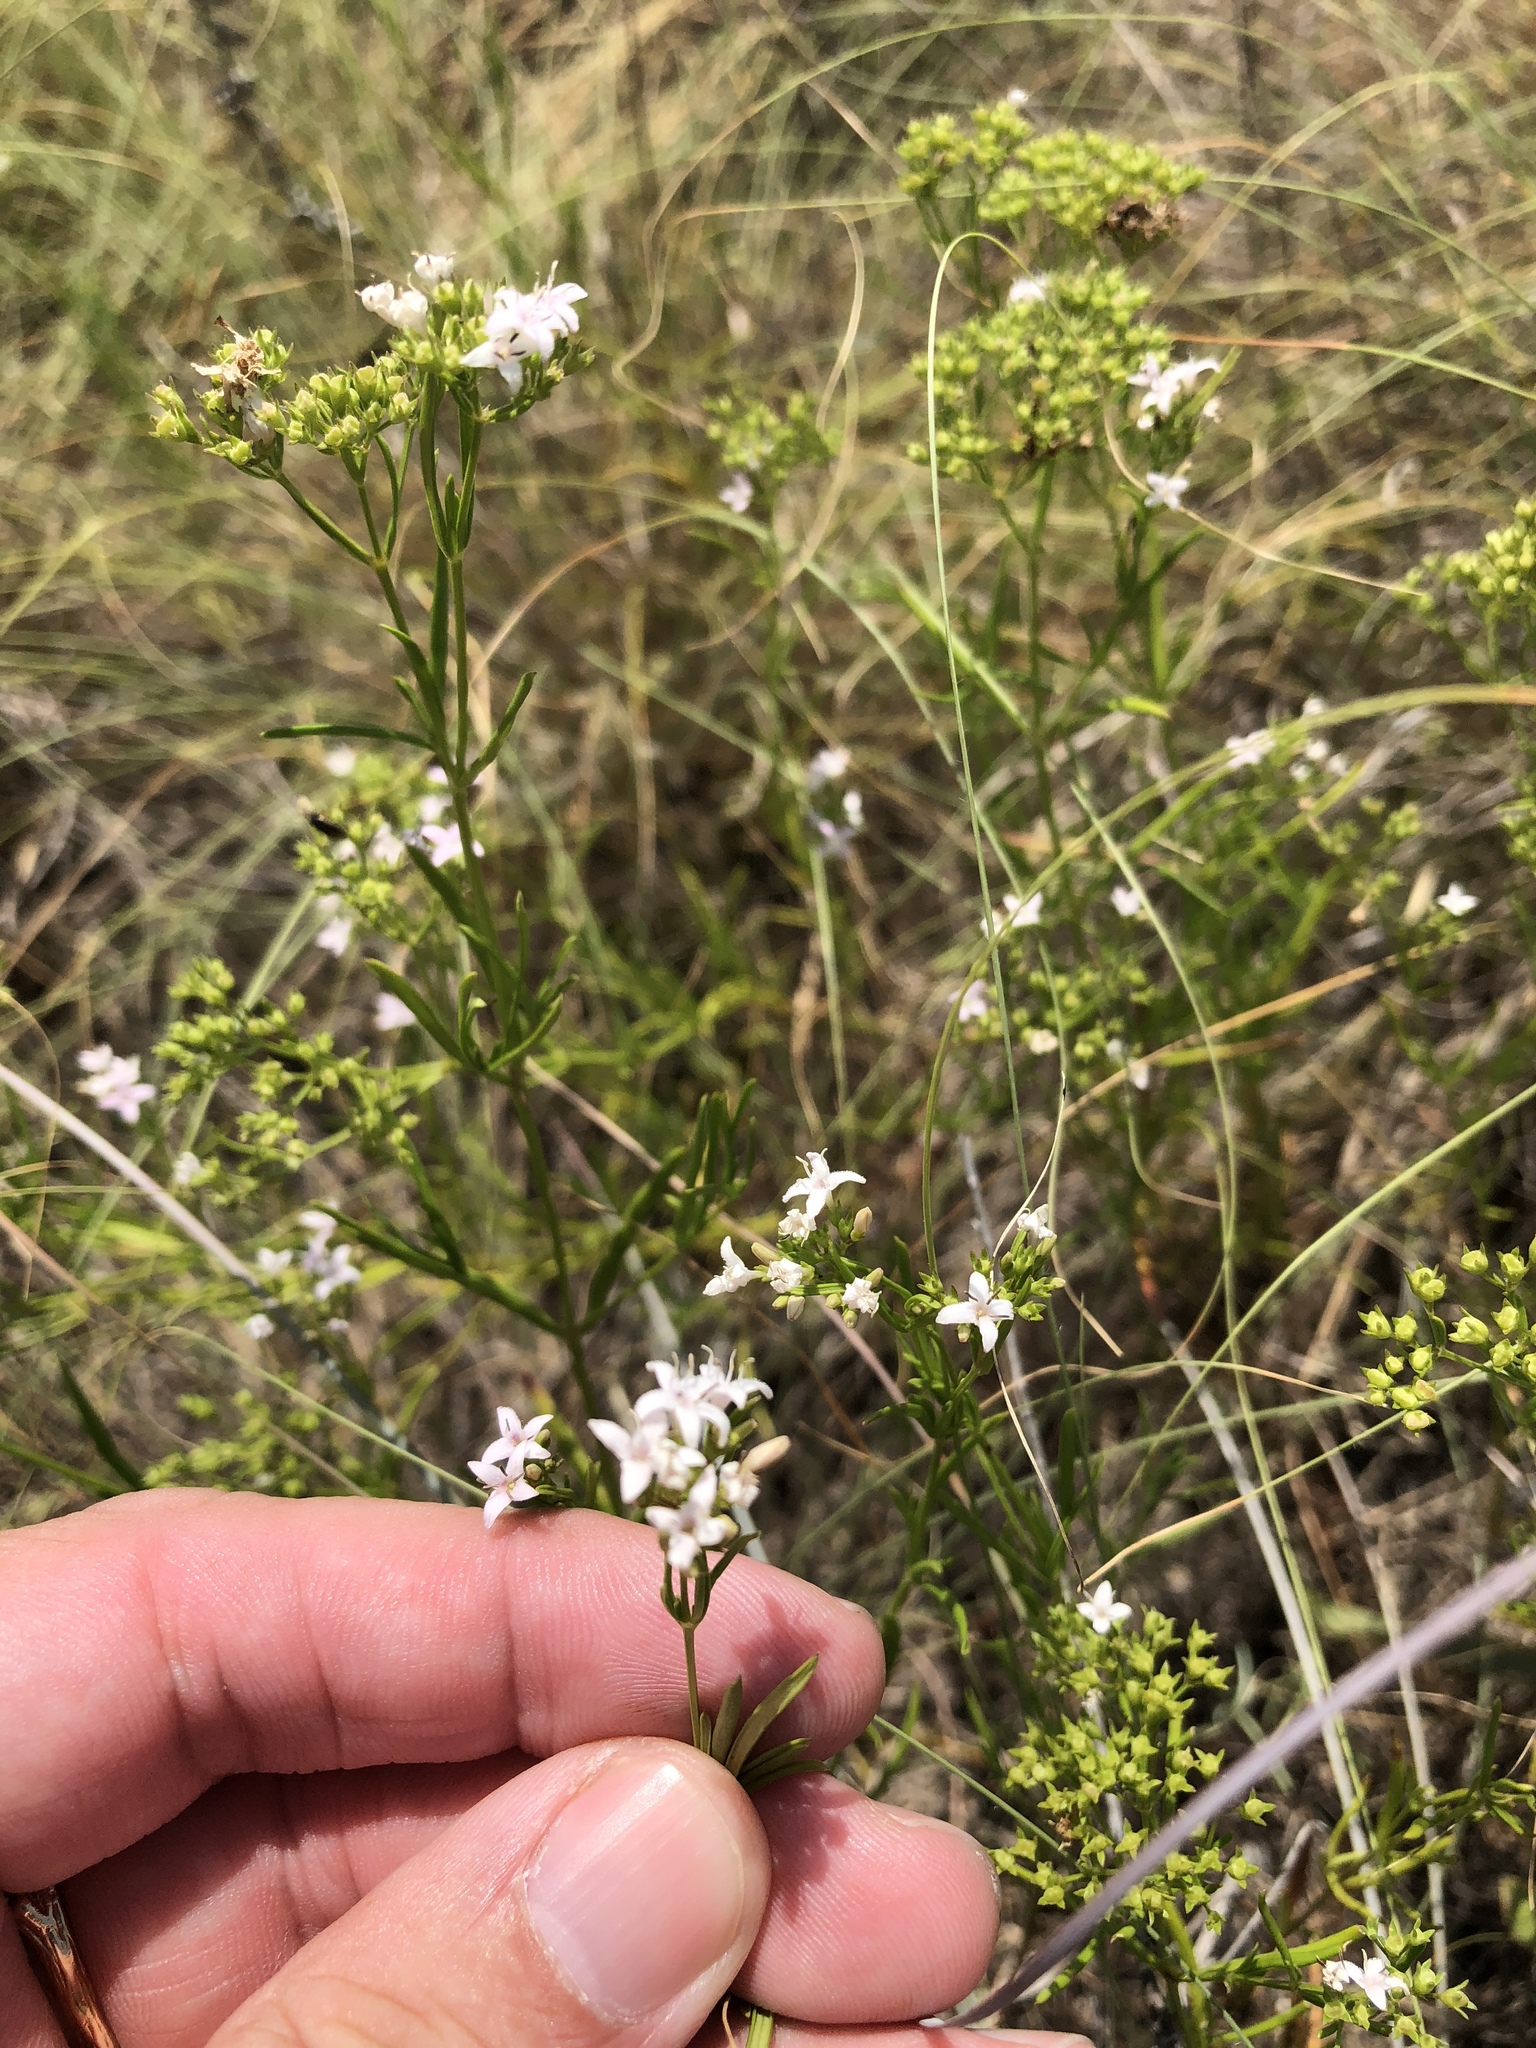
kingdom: Plantae
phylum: Tracheophyta
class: Magnoliopsida
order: Gentianales
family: Rubiaceae
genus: Stenaria
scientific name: Stenaria nigricans
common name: Diamondflowers
